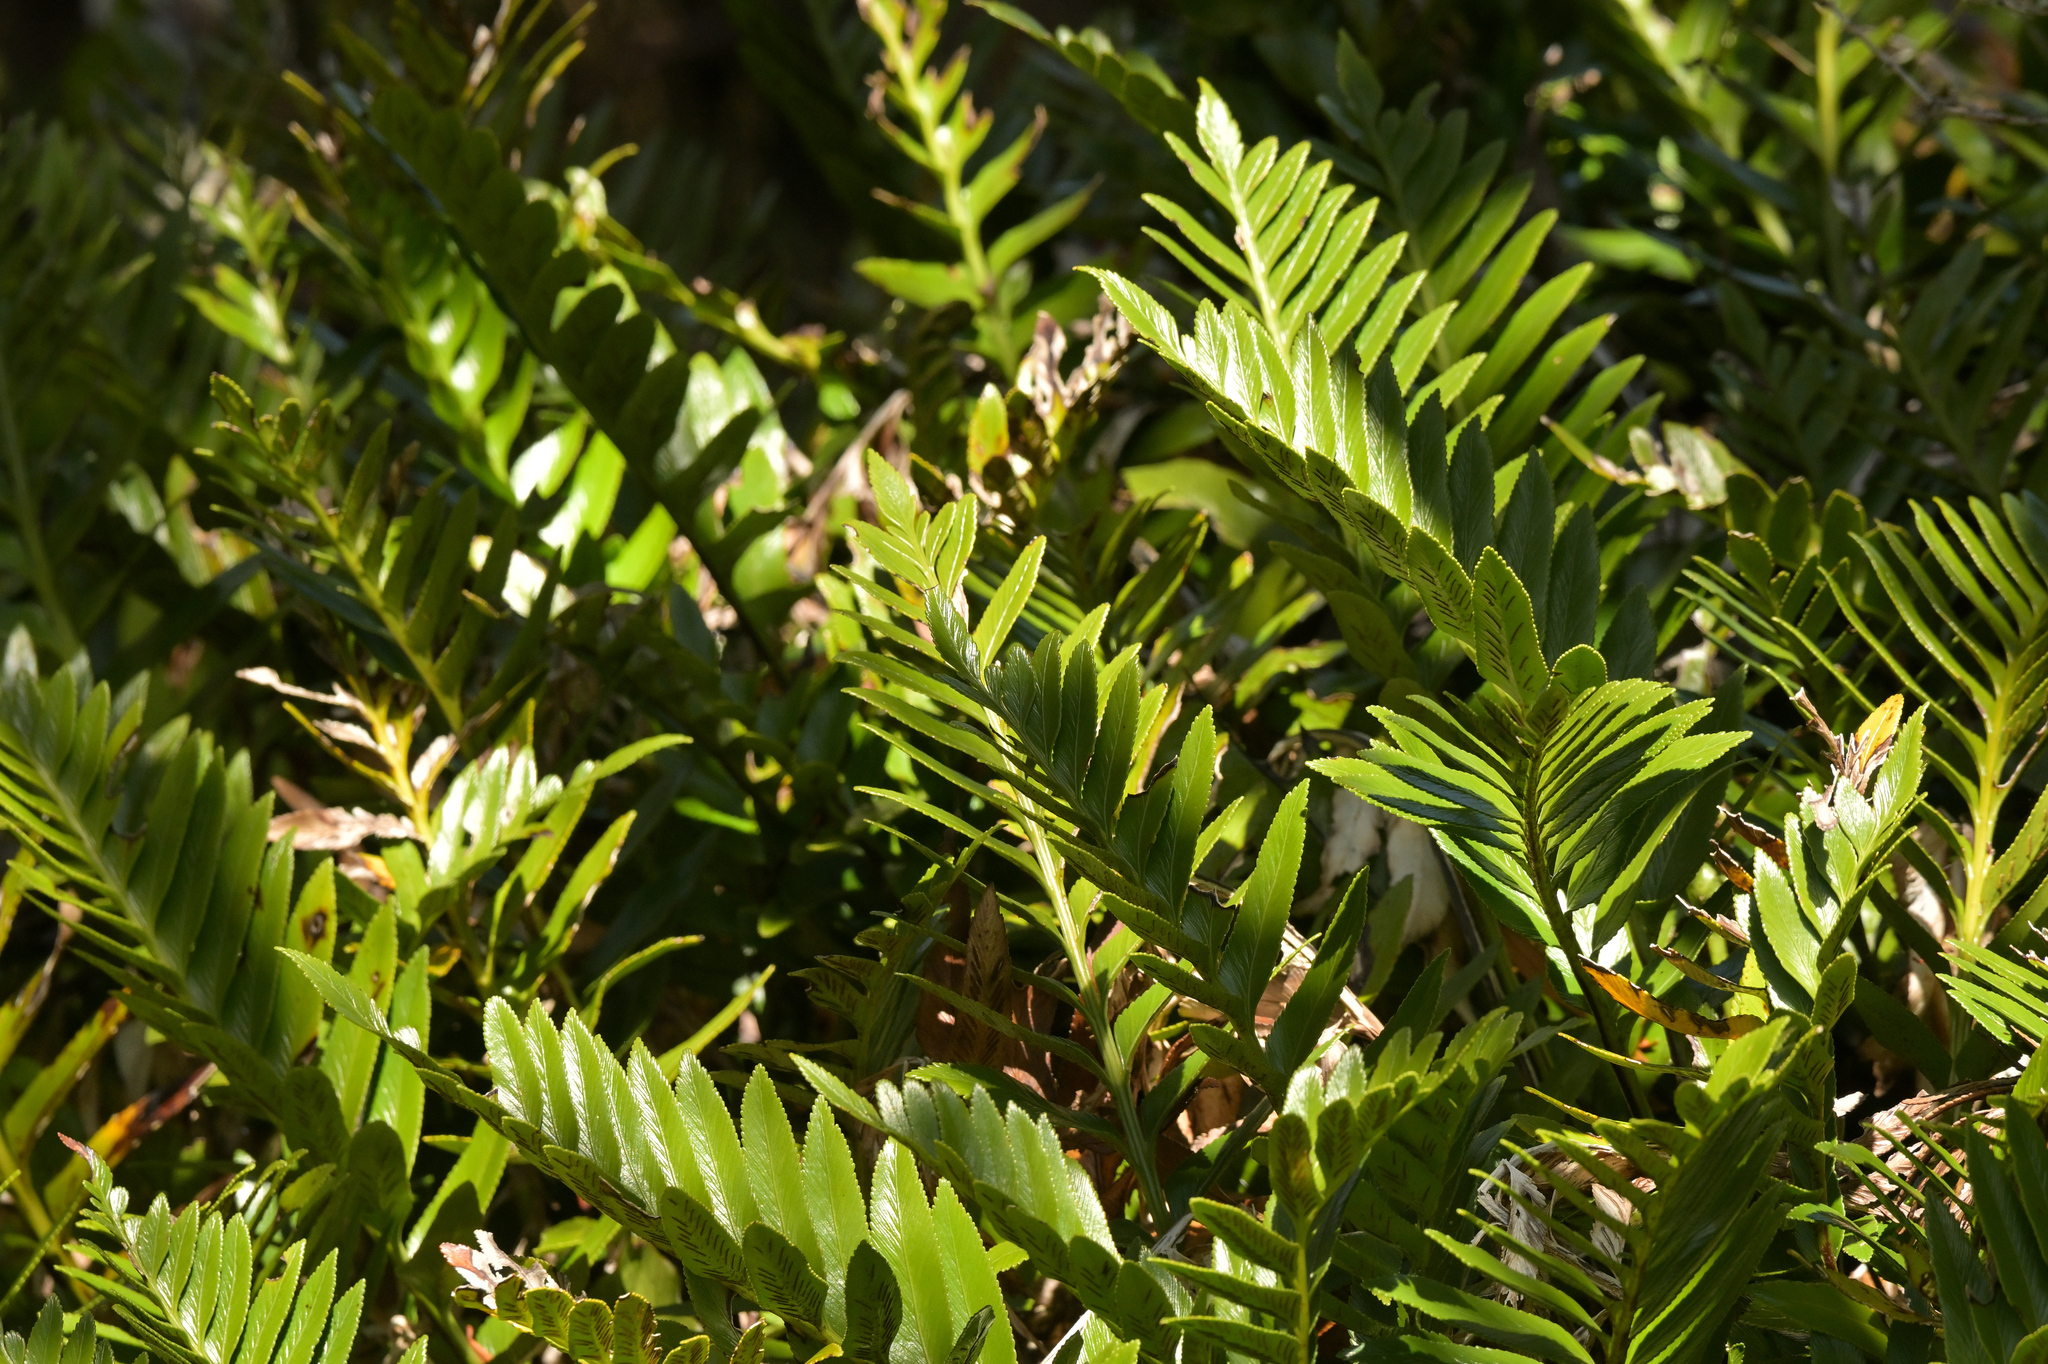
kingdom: Plantae
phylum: Tracheophyta
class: Polypodiopsida
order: Polypodiales
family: Aspleniaceae
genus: Asplenium
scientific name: Asplenium obtusatum
